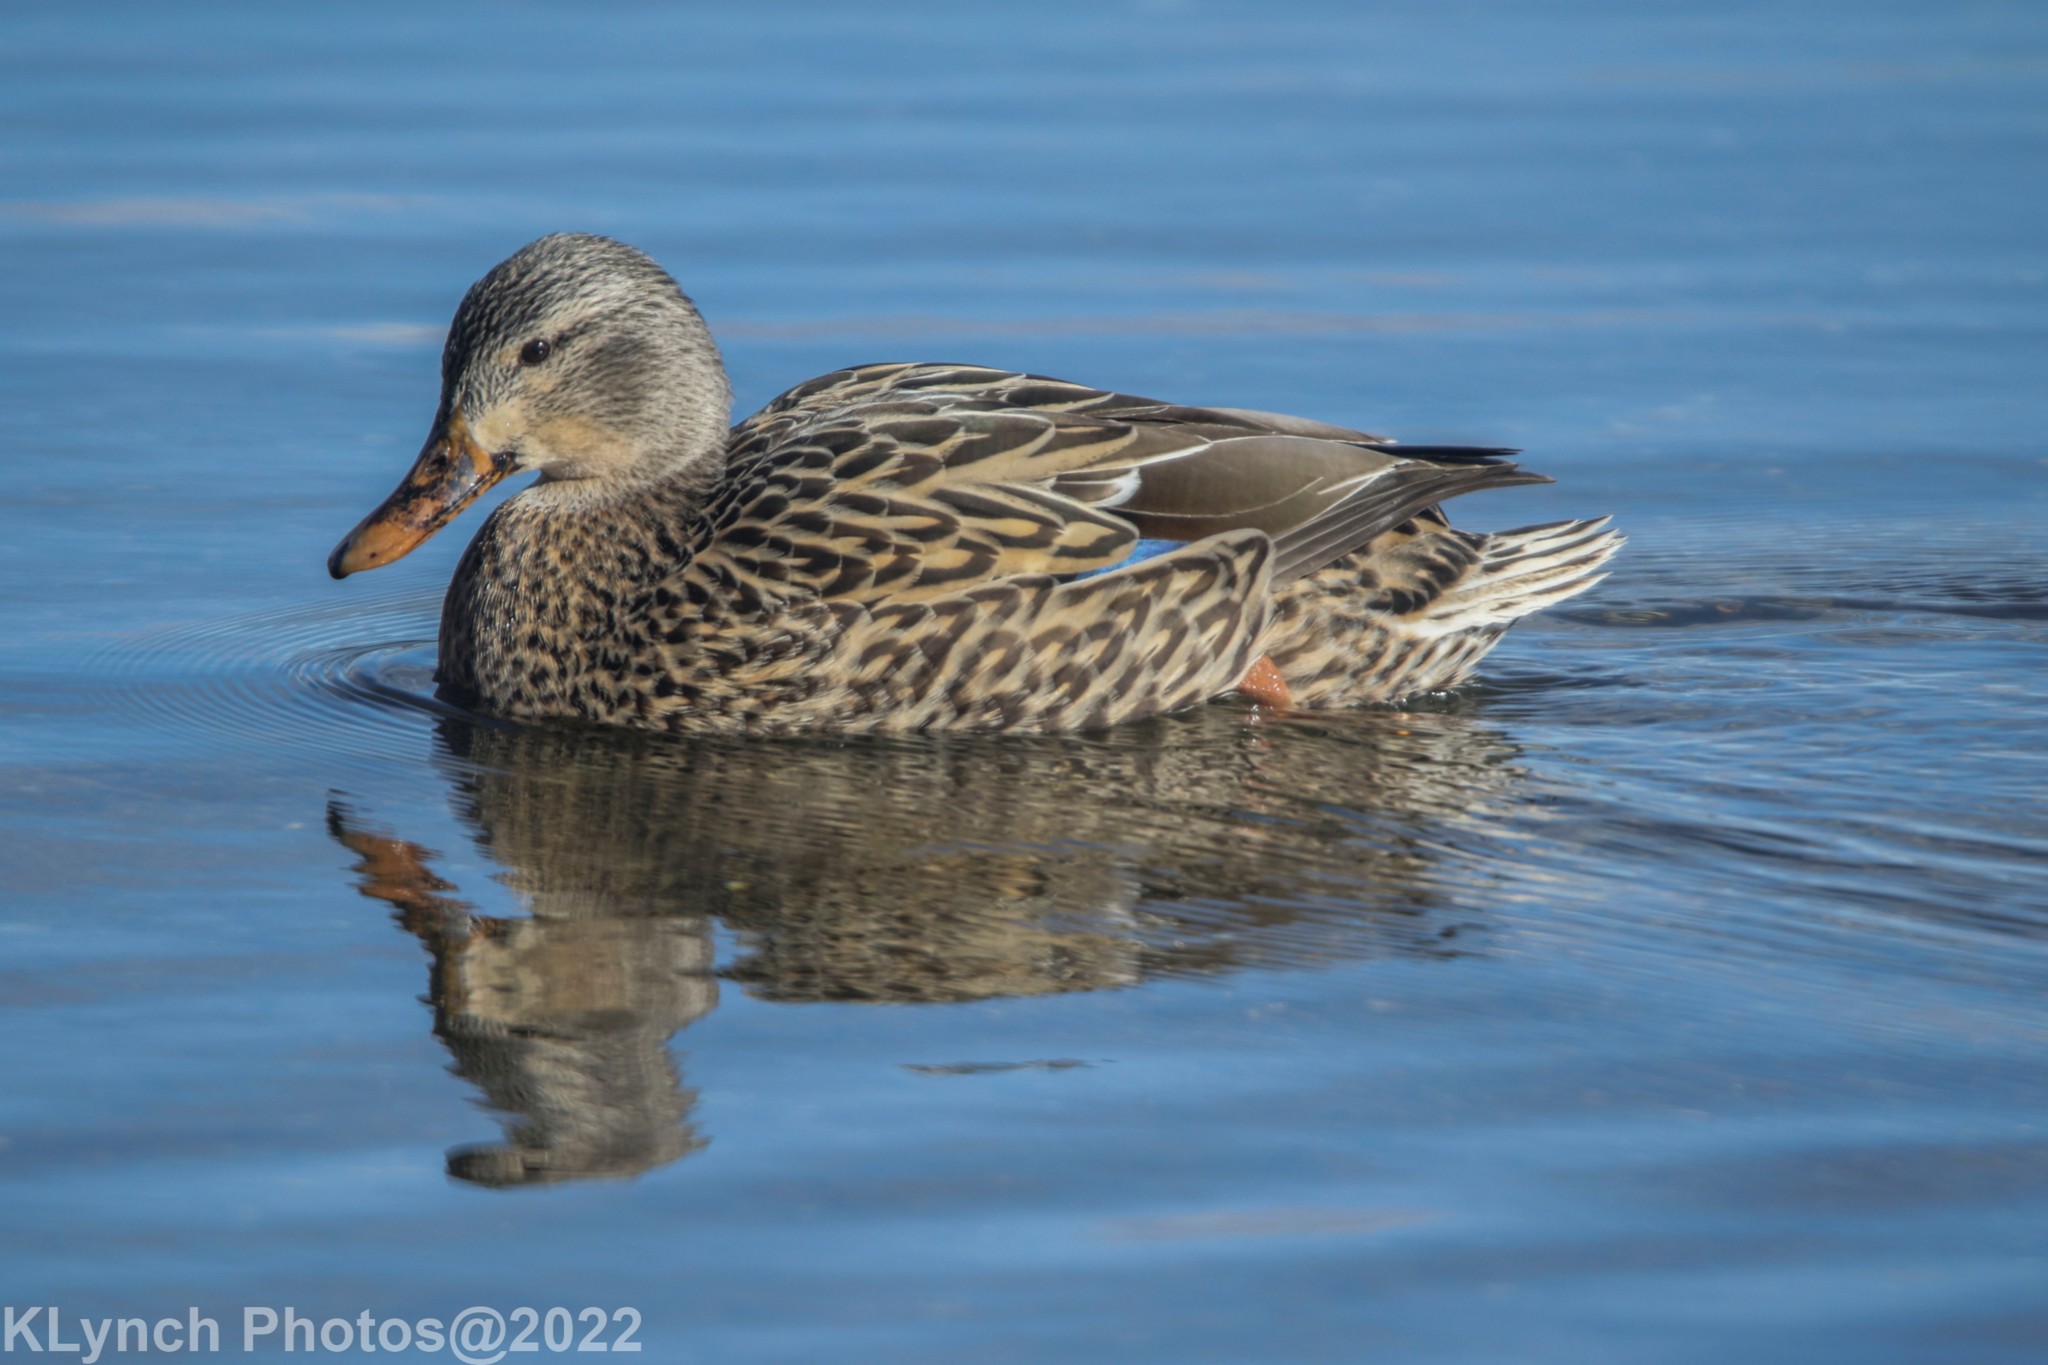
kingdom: Animalia
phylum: Chordata
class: Aves
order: Anseriformes
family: Anatidae
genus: Anas
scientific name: Anas platyrhynchos
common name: Mallard
